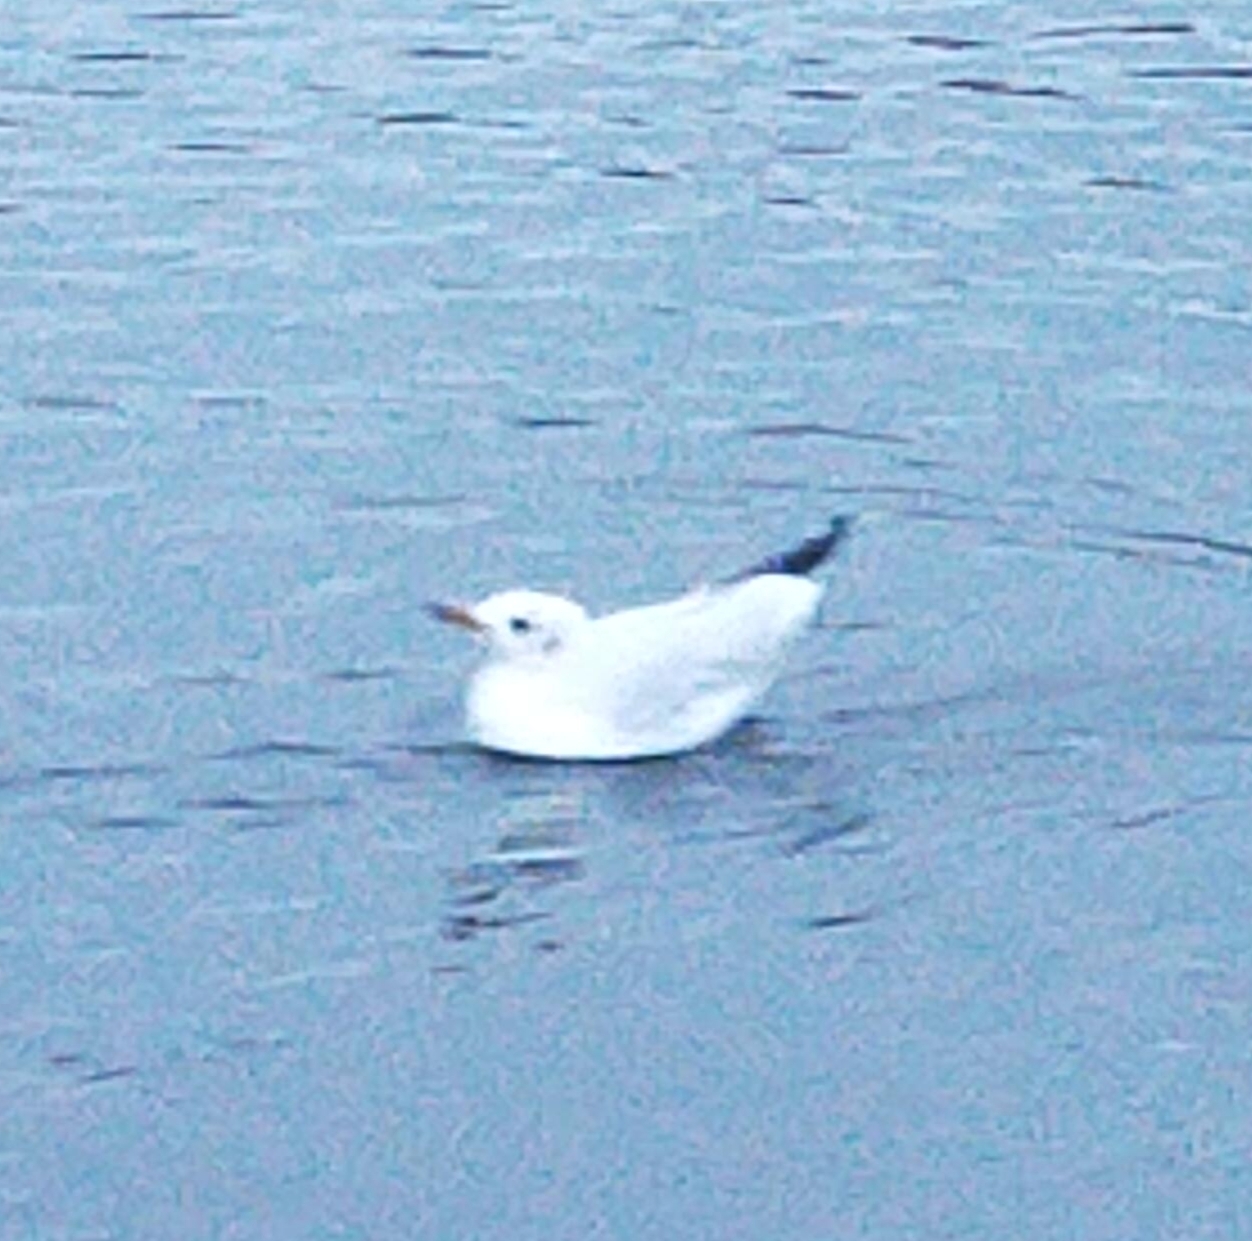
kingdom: Animalia
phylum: Chordata
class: Aves
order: Charadriiformes
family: Laridae
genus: Chroicocephalus
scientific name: Chroicocephalus ridibundus
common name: Black-headed gull
